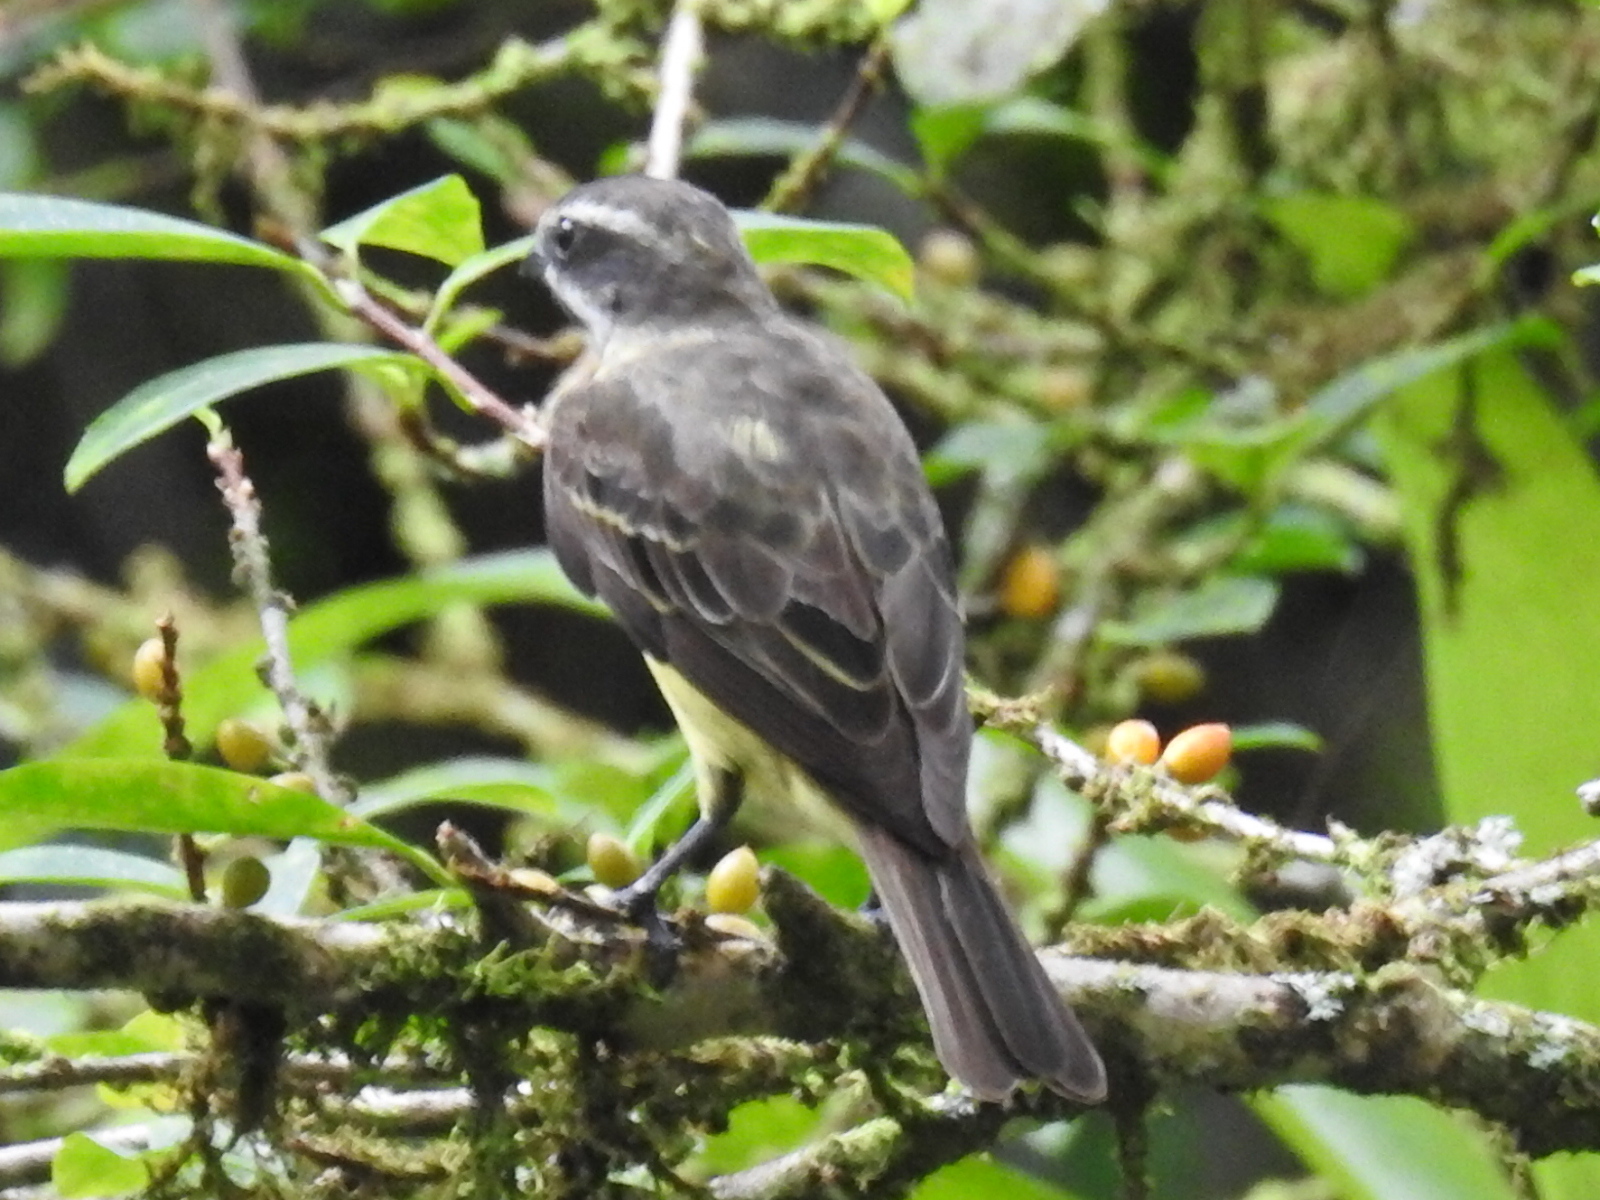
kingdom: Animalia
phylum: Chordata
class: Aves
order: Passeriformes
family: Tyrannidae
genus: Legatus
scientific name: Legatus leucophaius
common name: Piratic flycatcher
